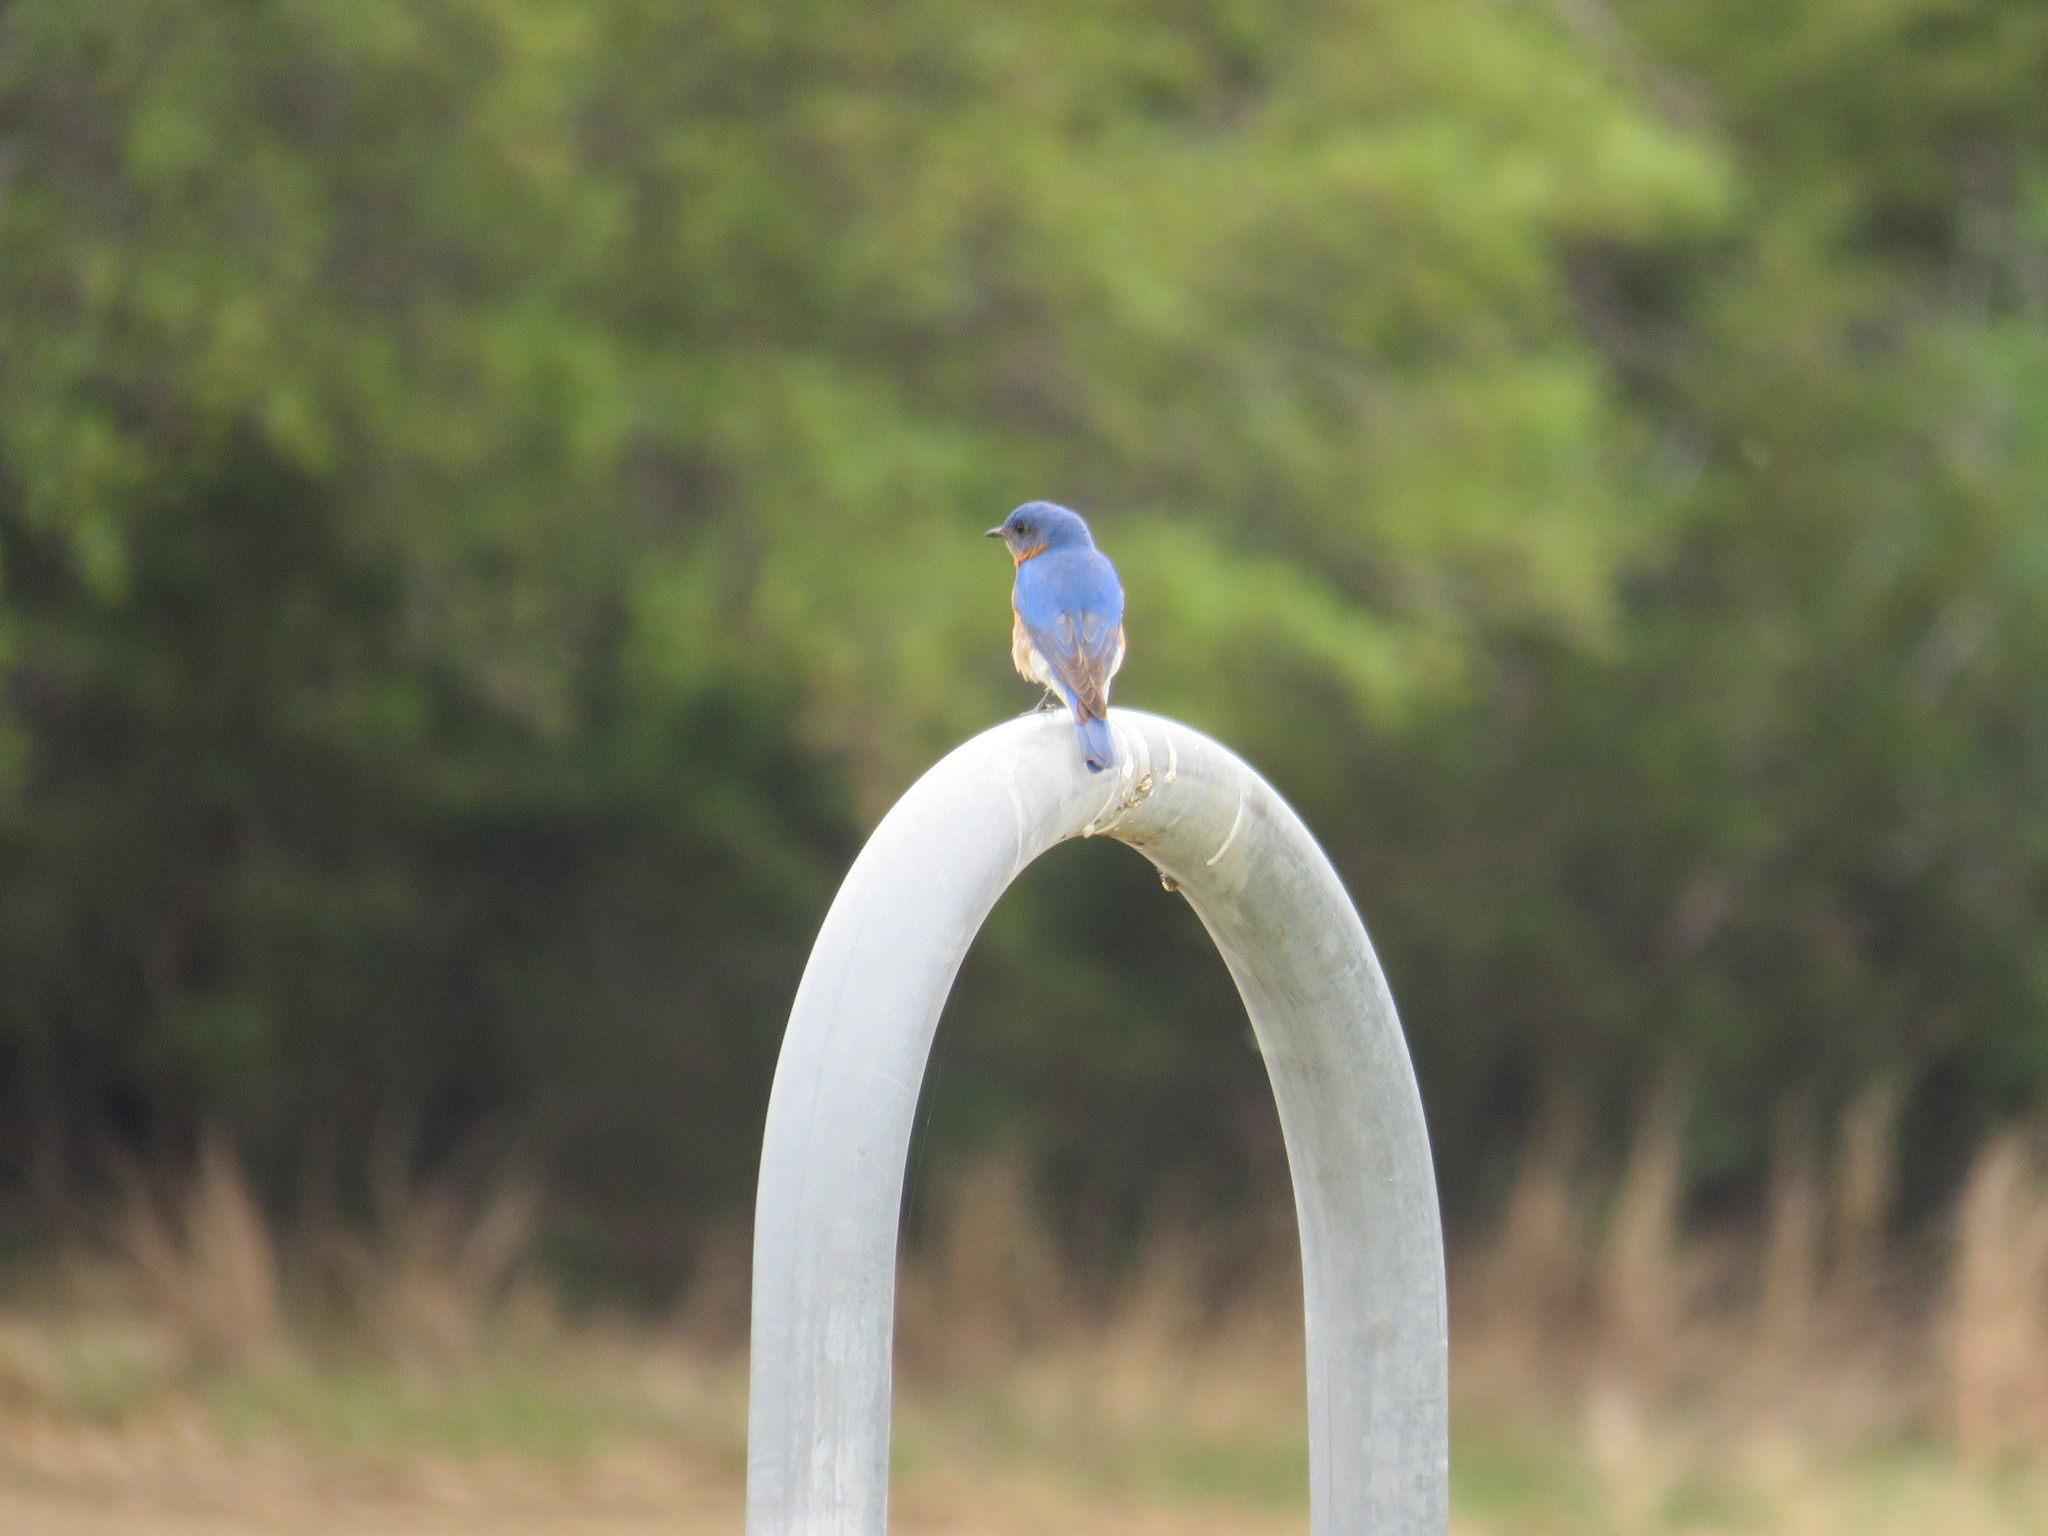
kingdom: Animalia
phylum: Chordata
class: Aves
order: Passeriformes
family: Turdidae
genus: Sialia
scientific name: Sialia sialis
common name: Eastern bluebird
